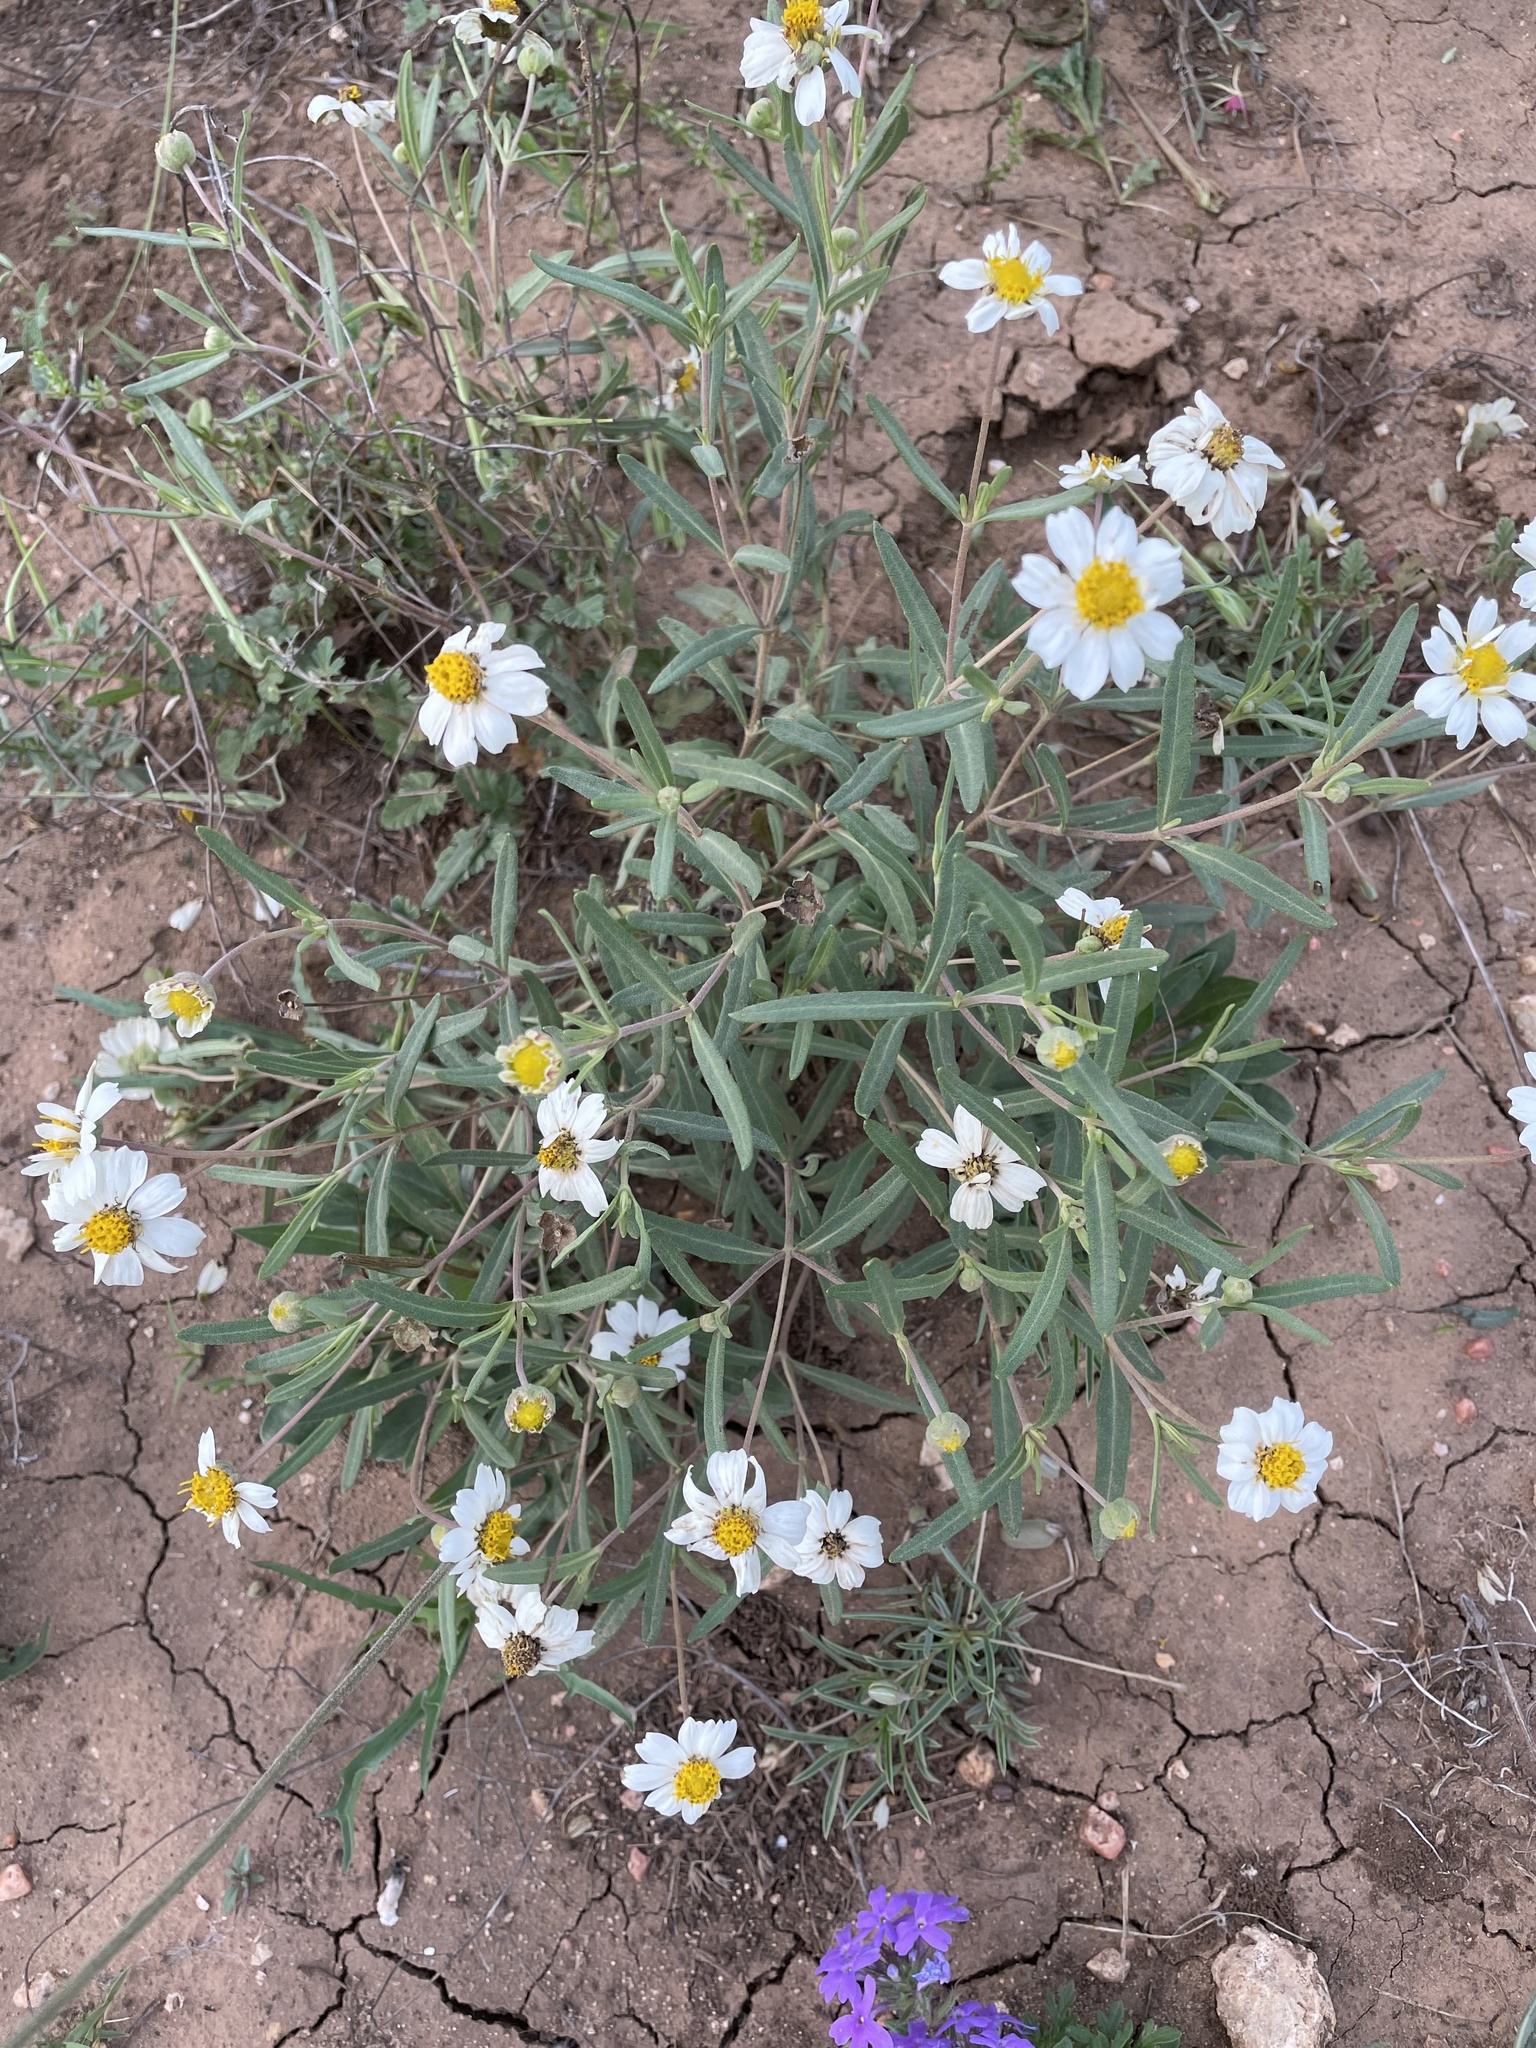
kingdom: Plantae
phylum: Tracheophyta
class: Magnoliopsida
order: Asterales
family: Asteraceae
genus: Melampodium
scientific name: Melampodium leucanthum
